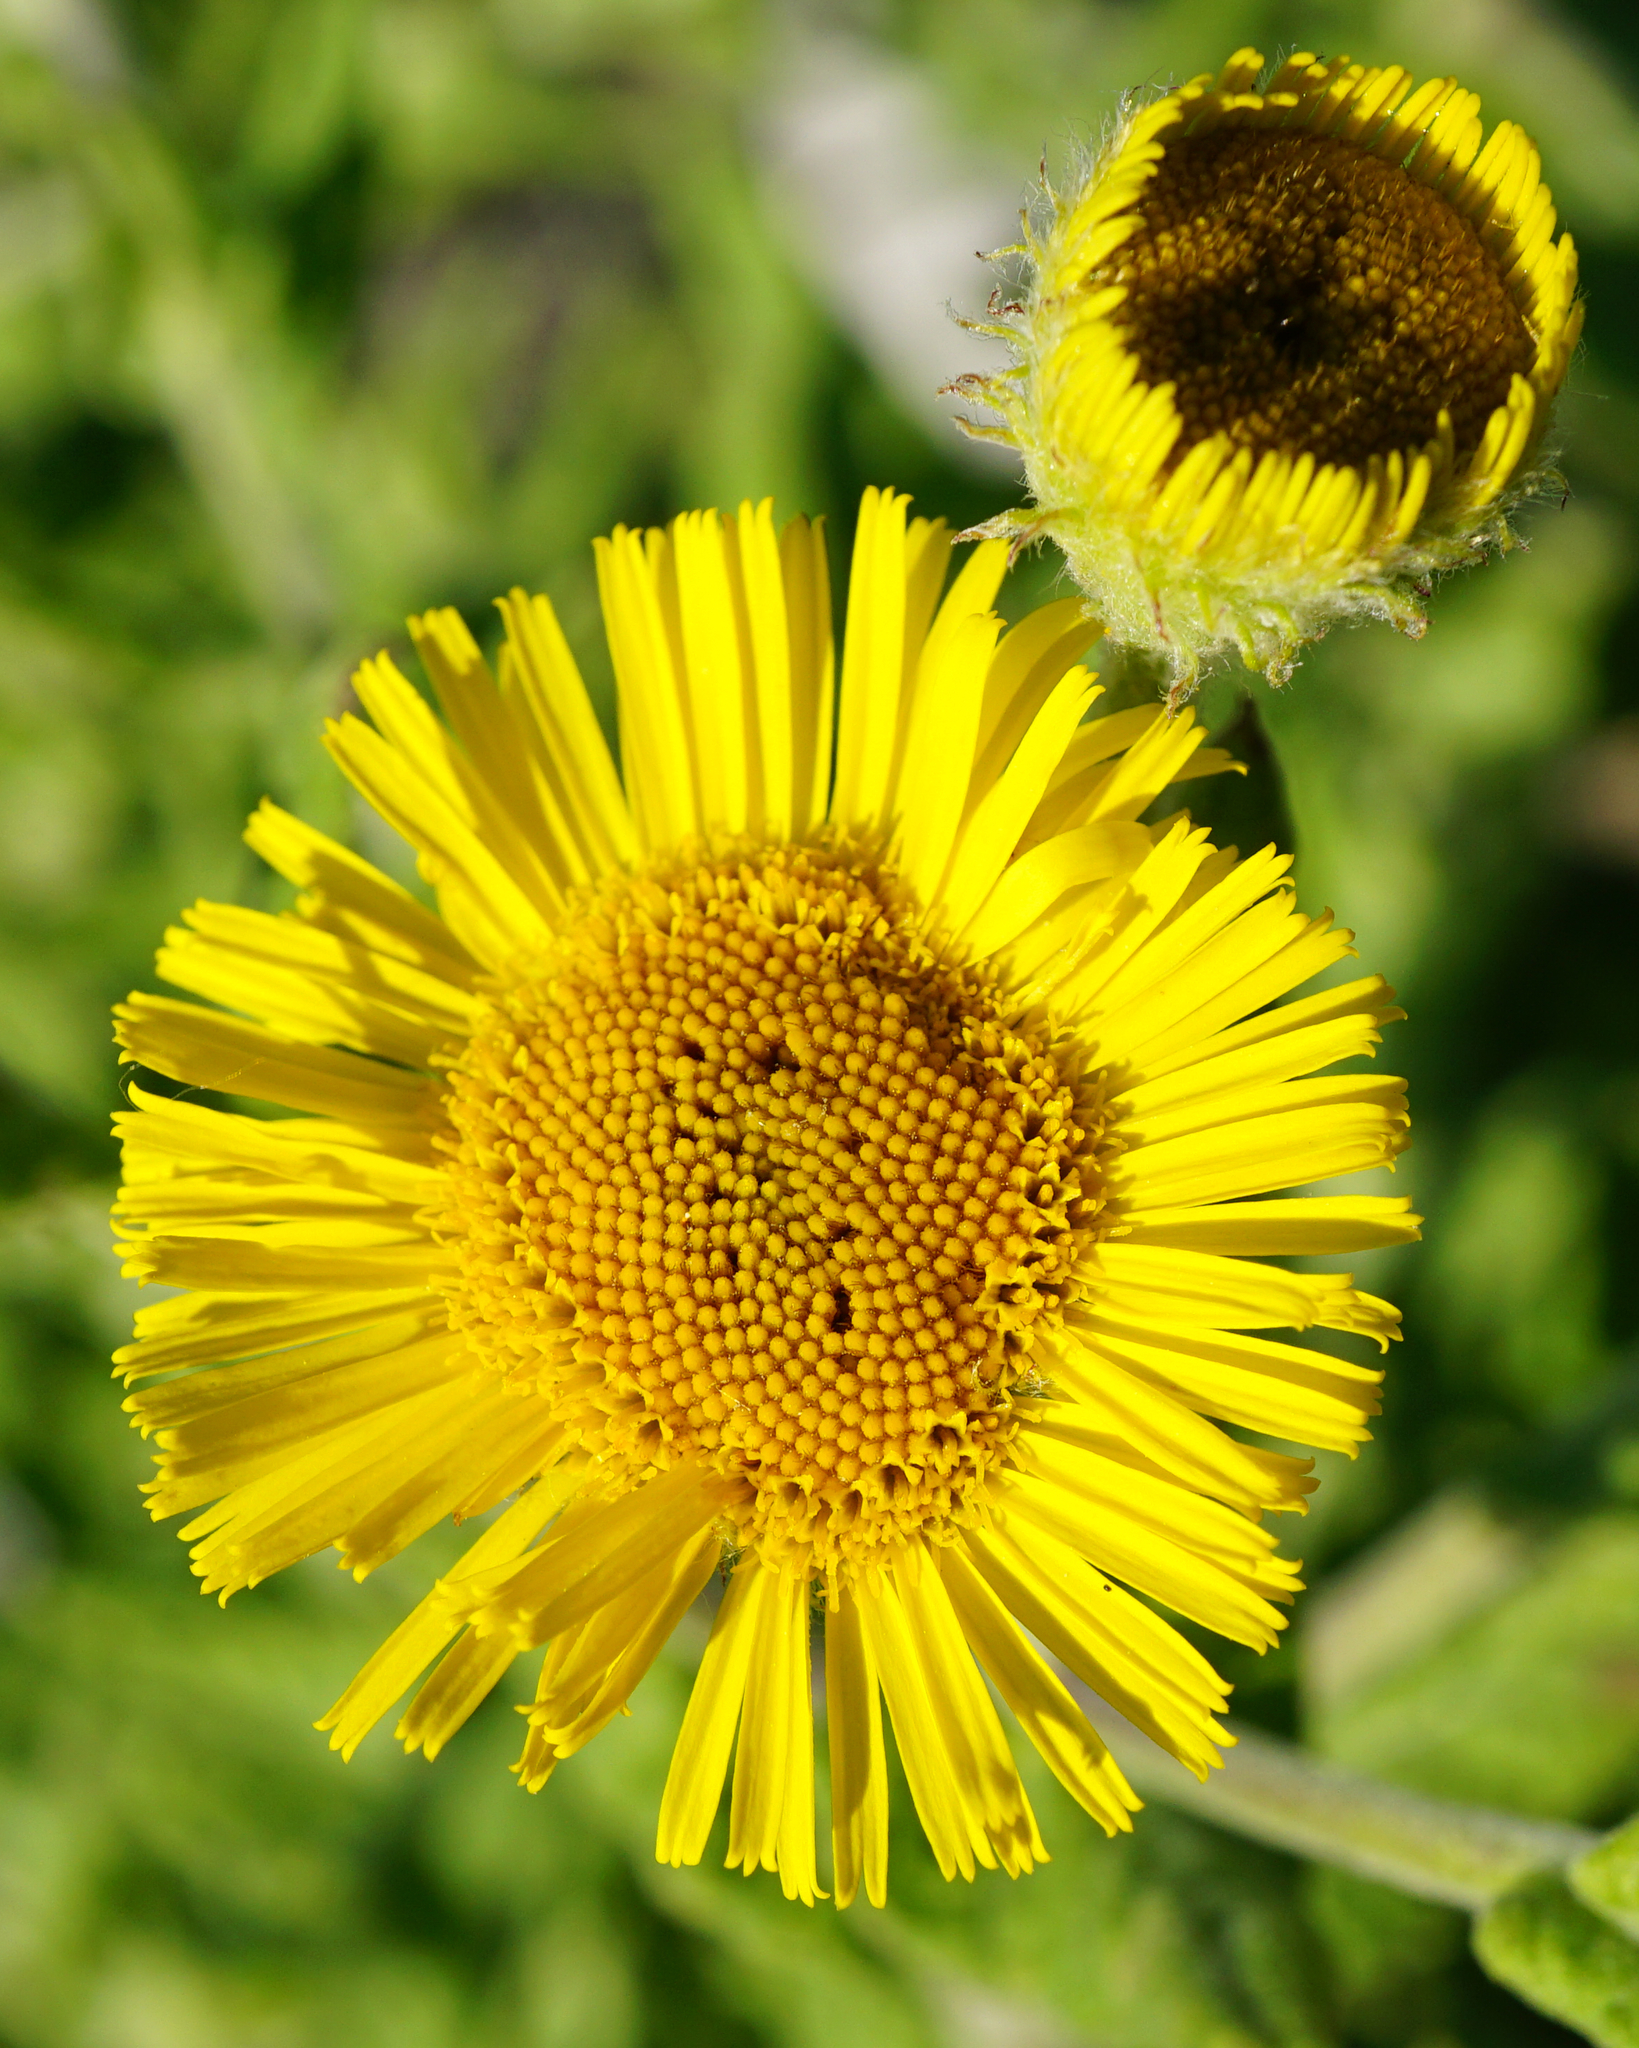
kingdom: Plantae
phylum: Tracheophyta
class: Magnoliopsida
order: Asterales
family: Asteraceae
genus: Pulicaria
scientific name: Pulicaria dysenterica
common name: Common fleabane
